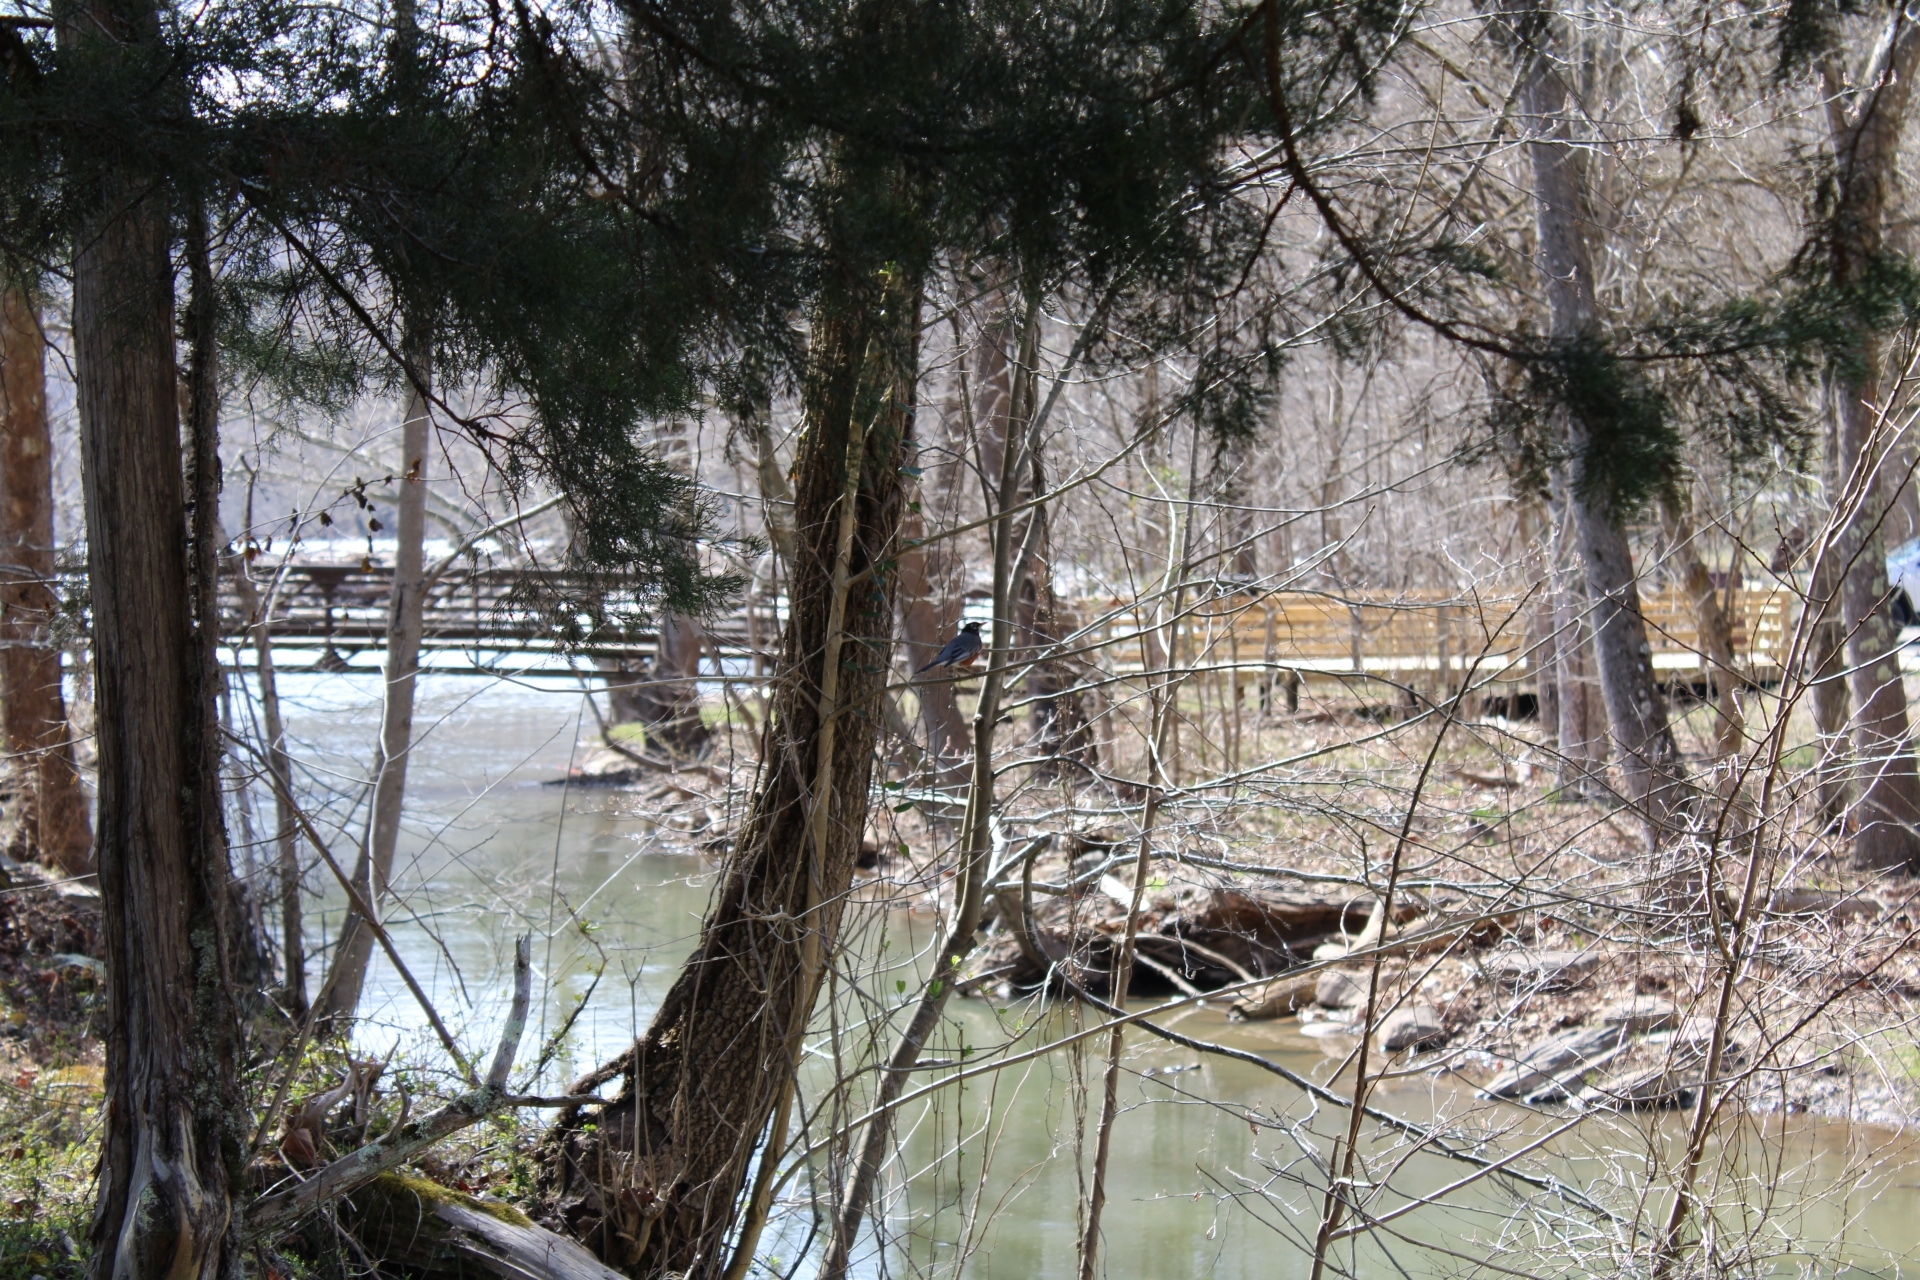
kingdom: Plantae
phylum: Tracheophyta
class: Pinopsida
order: Pinales
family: Cupressaceae
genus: Juniperus
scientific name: Juniperus virginiana
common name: Red juniper
